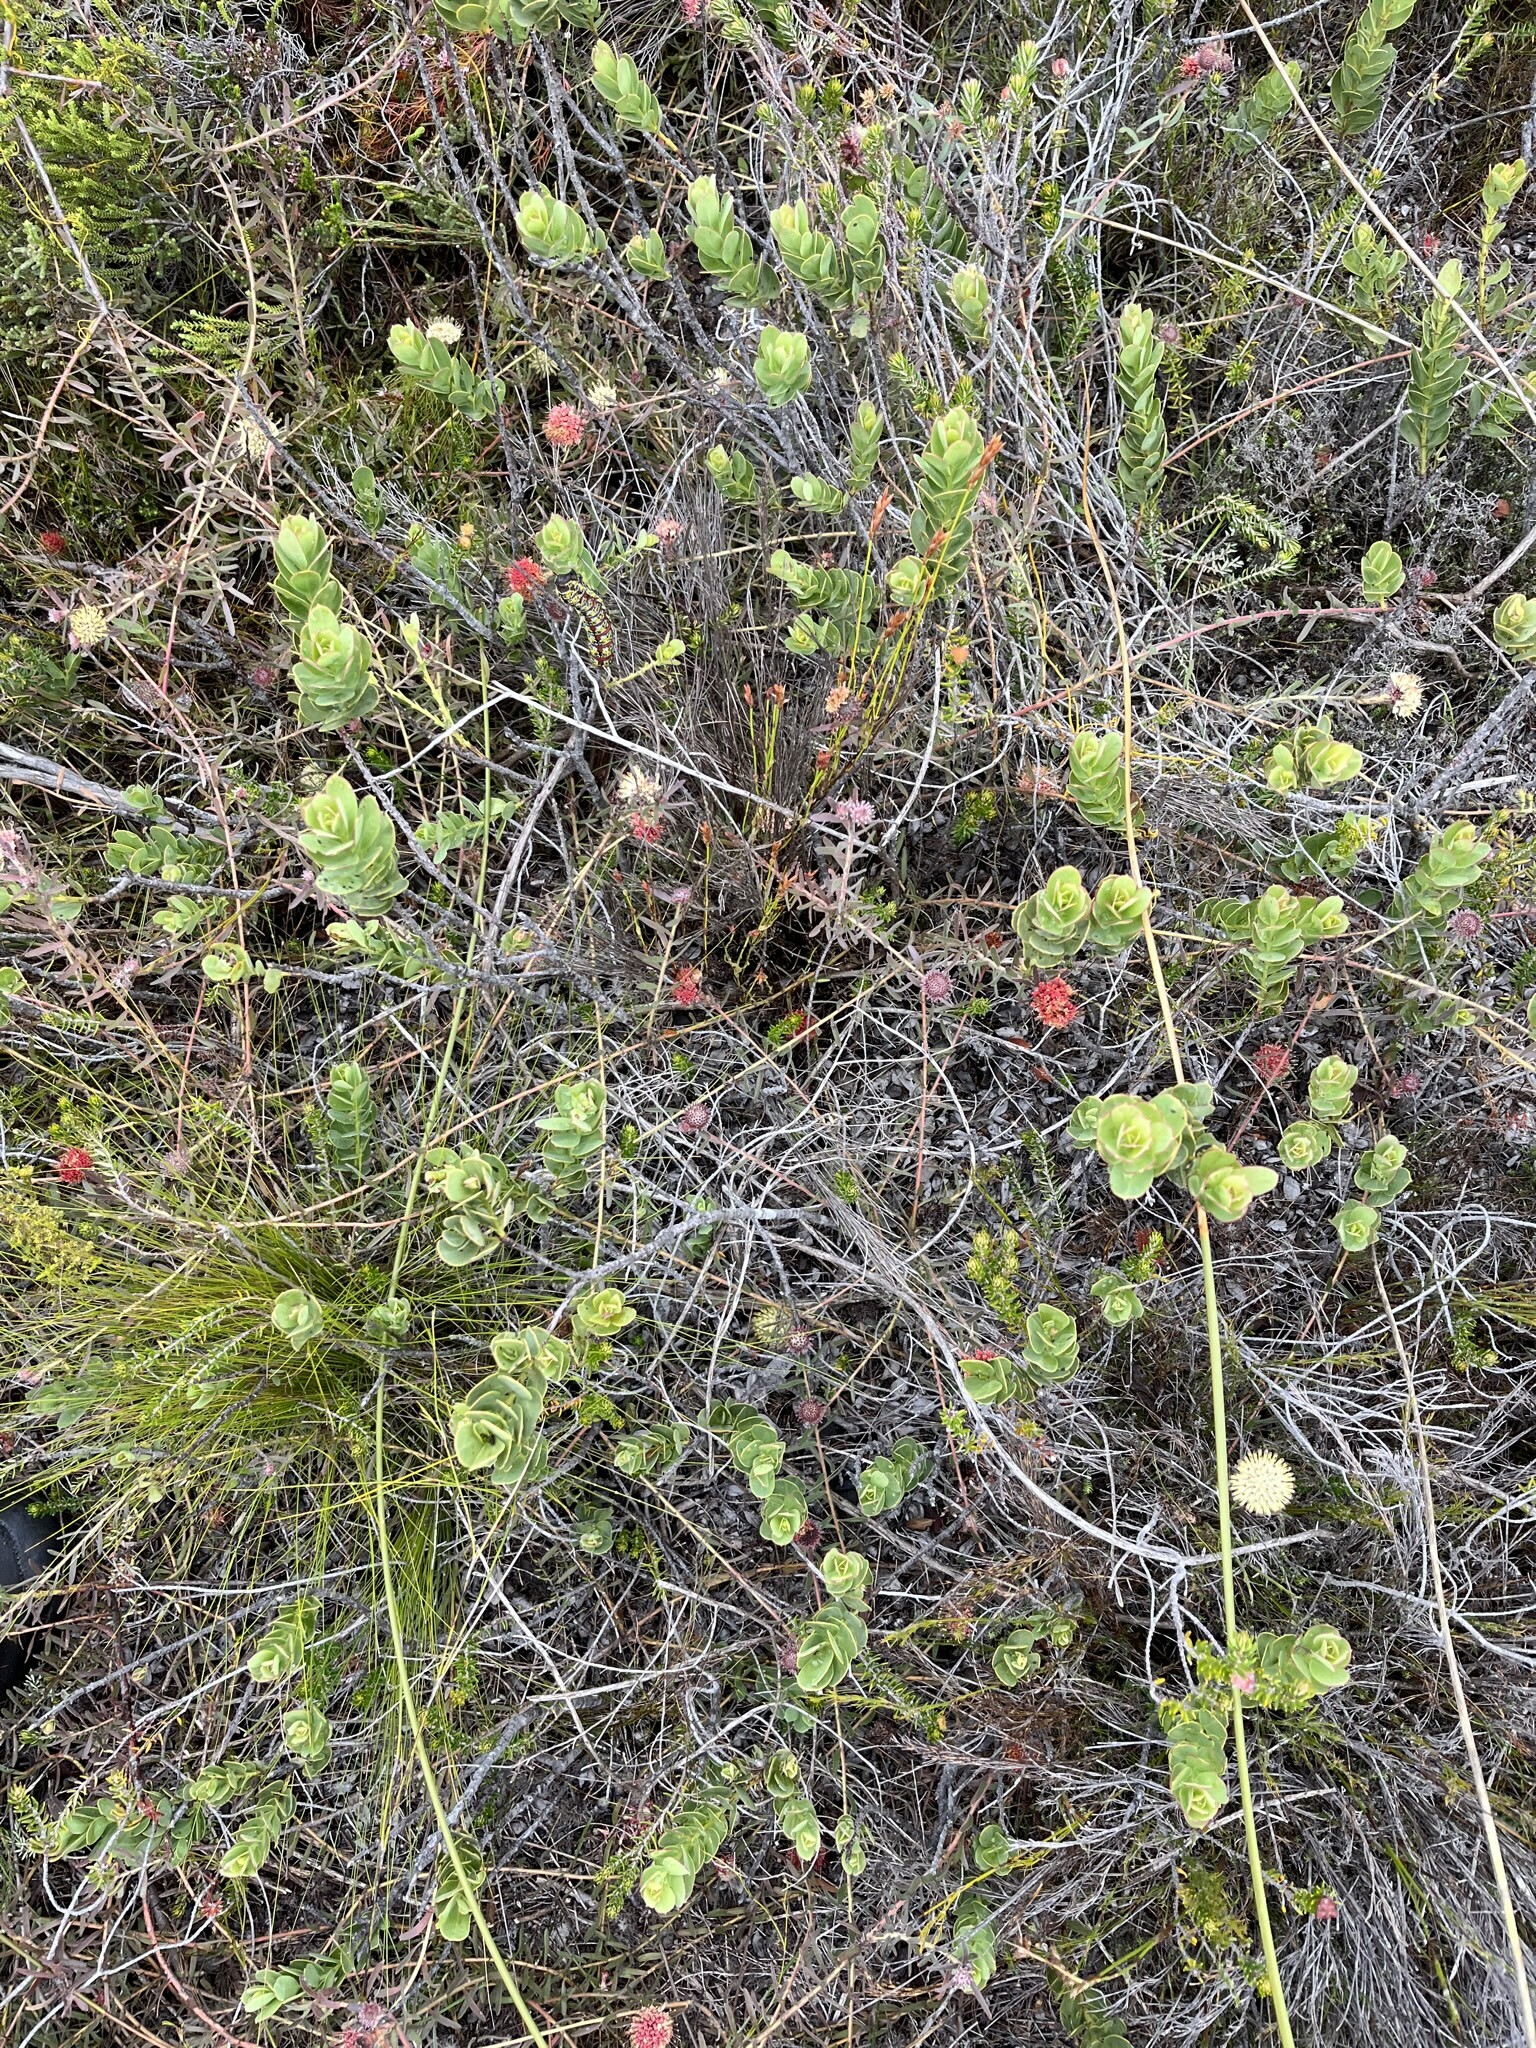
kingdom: Plantae
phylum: Tracheophyta
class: Magnoliopsida
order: Santalales
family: Santalaceae
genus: Osyris
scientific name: Osyris compressa
